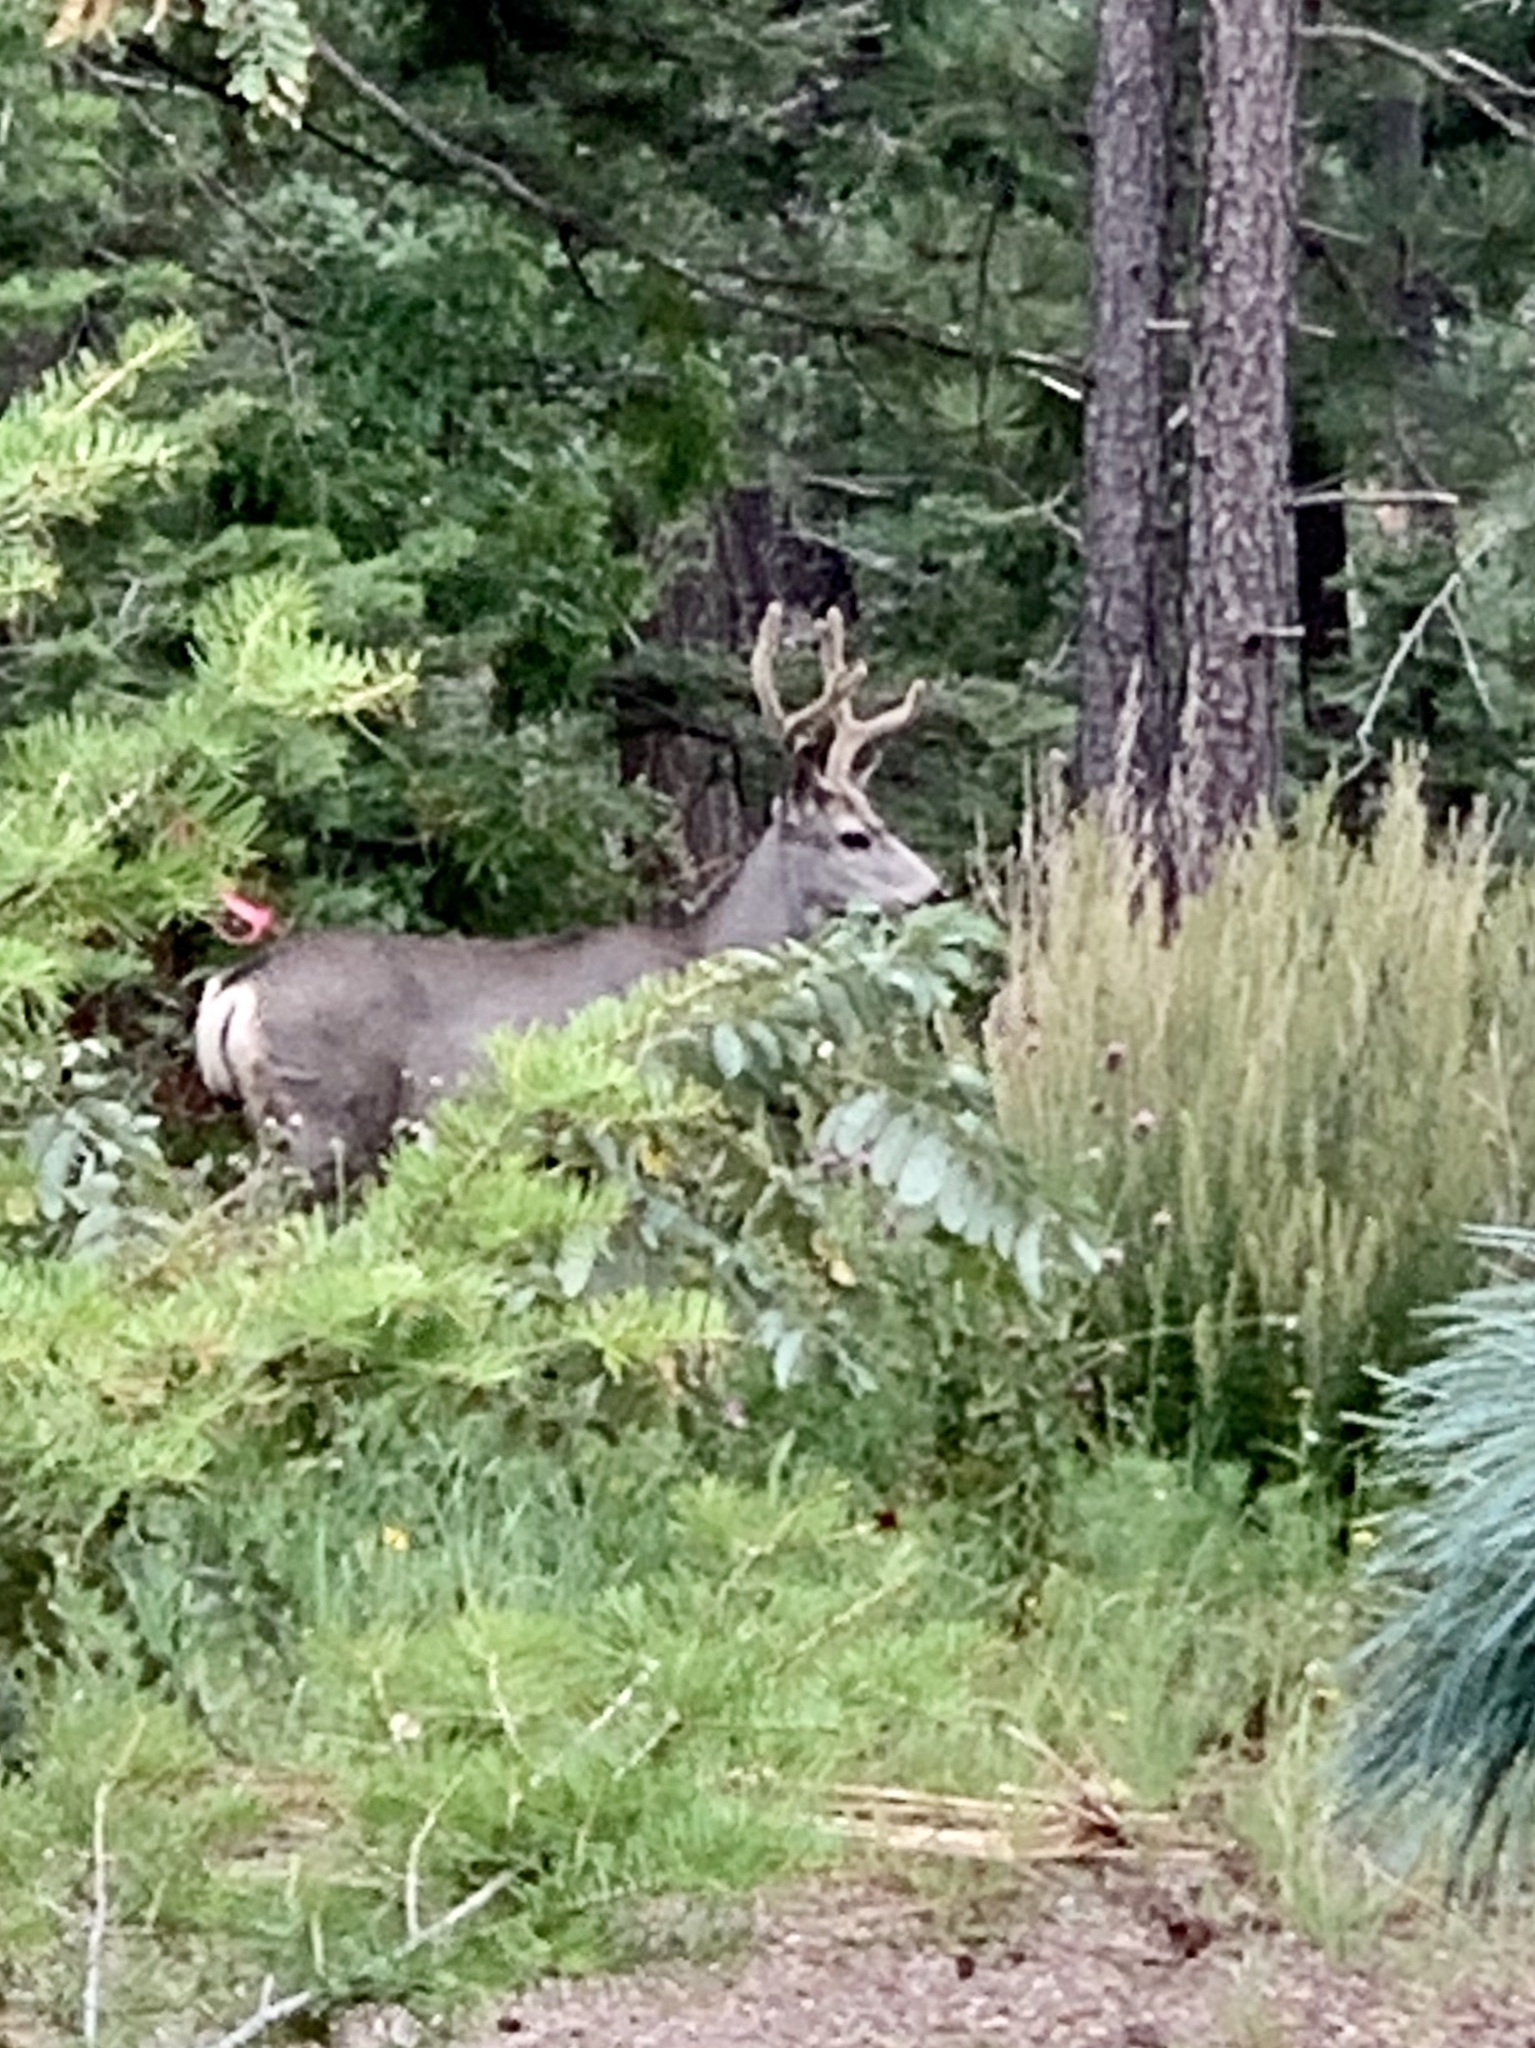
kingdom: Animalia
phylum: Chordata
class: Mammalia
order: Artiodactyla
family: Cervidae
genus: Odocoileus
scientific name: Odocoileus hemionus
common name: Mule deer
